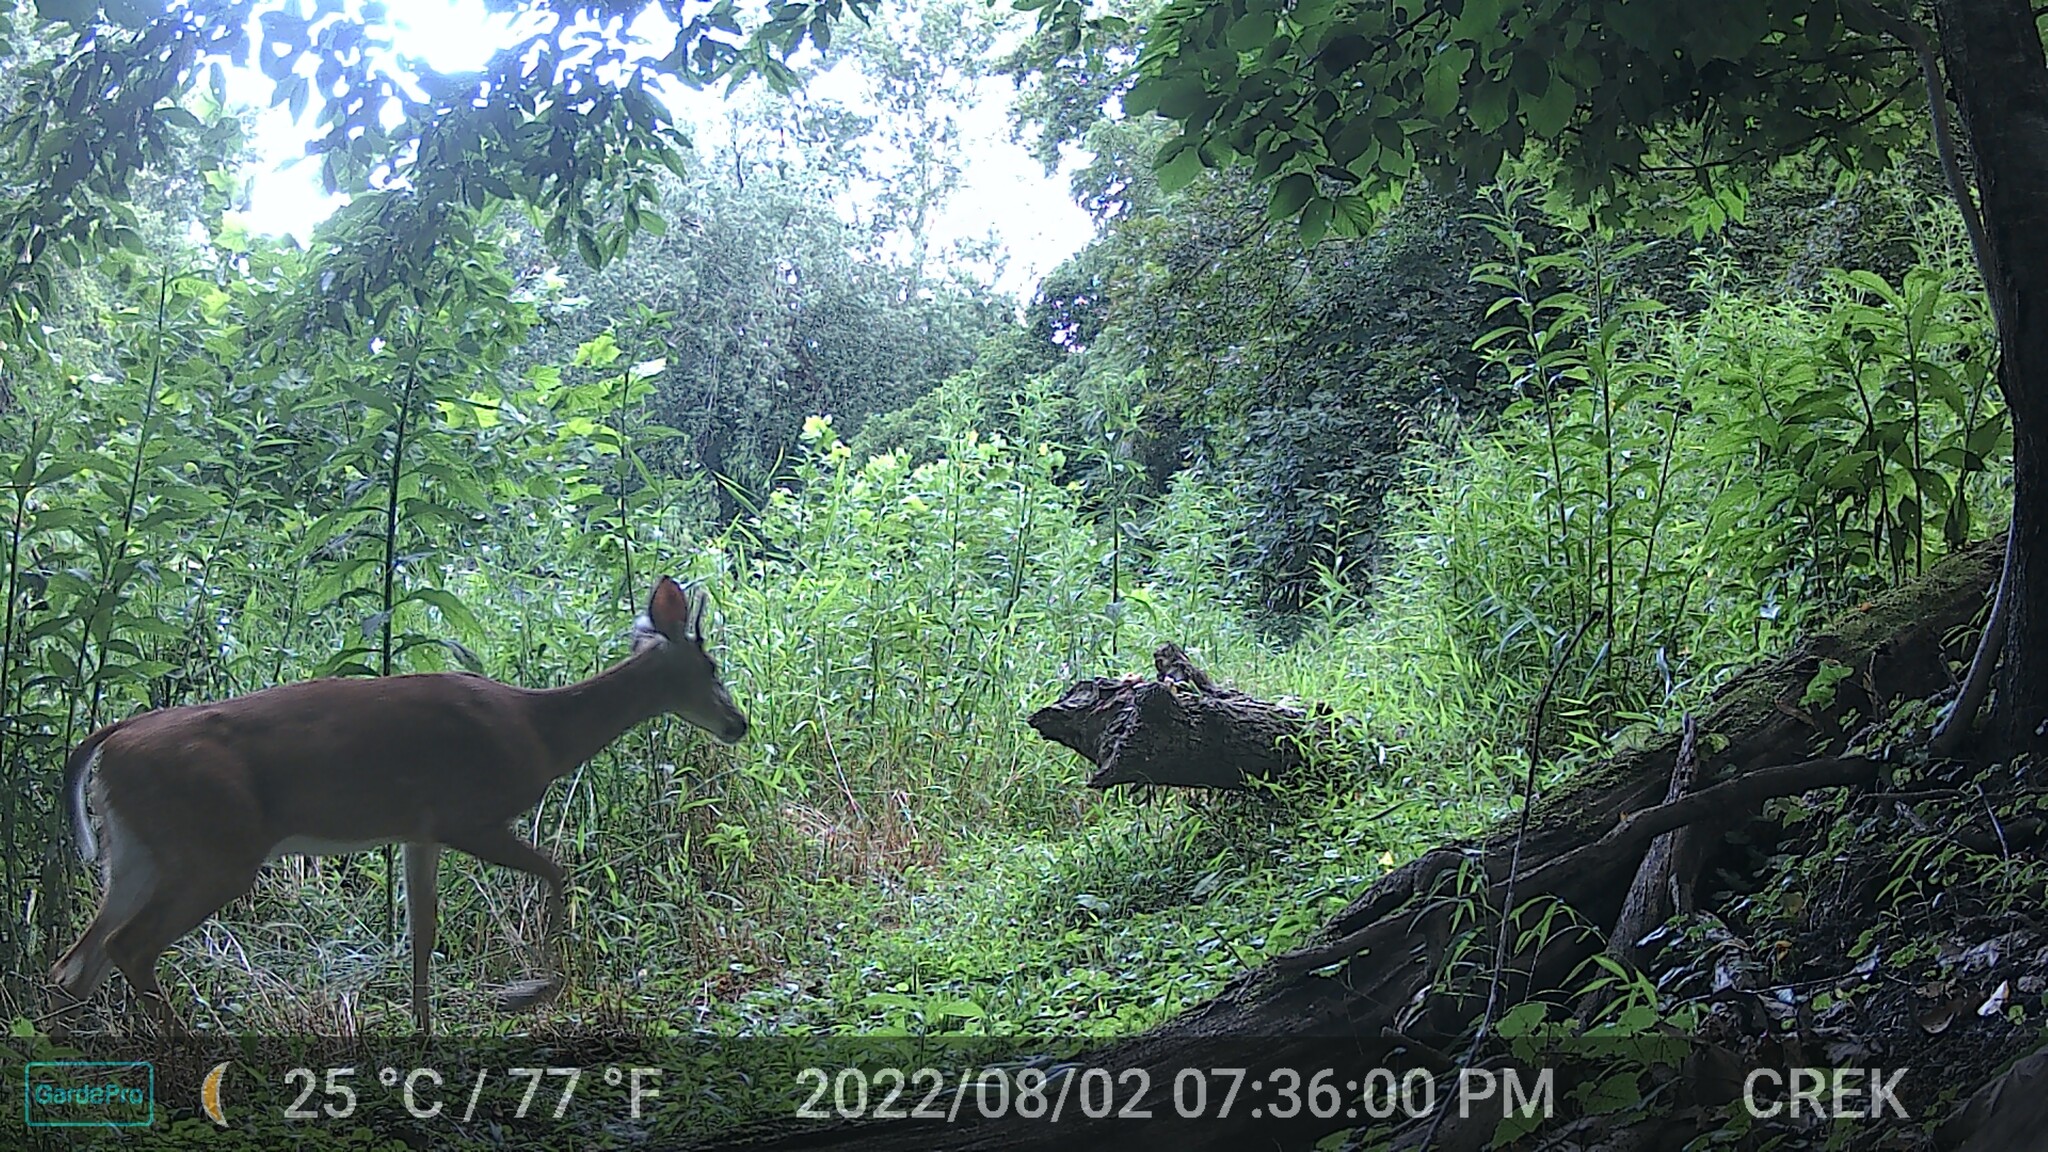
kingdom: Animalia
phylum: Chordata
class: Mammalia
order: Artiodactyla
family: Cervidae
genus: Odocoileus
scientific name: Odocoileus virginianus
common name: White-tailed deer
